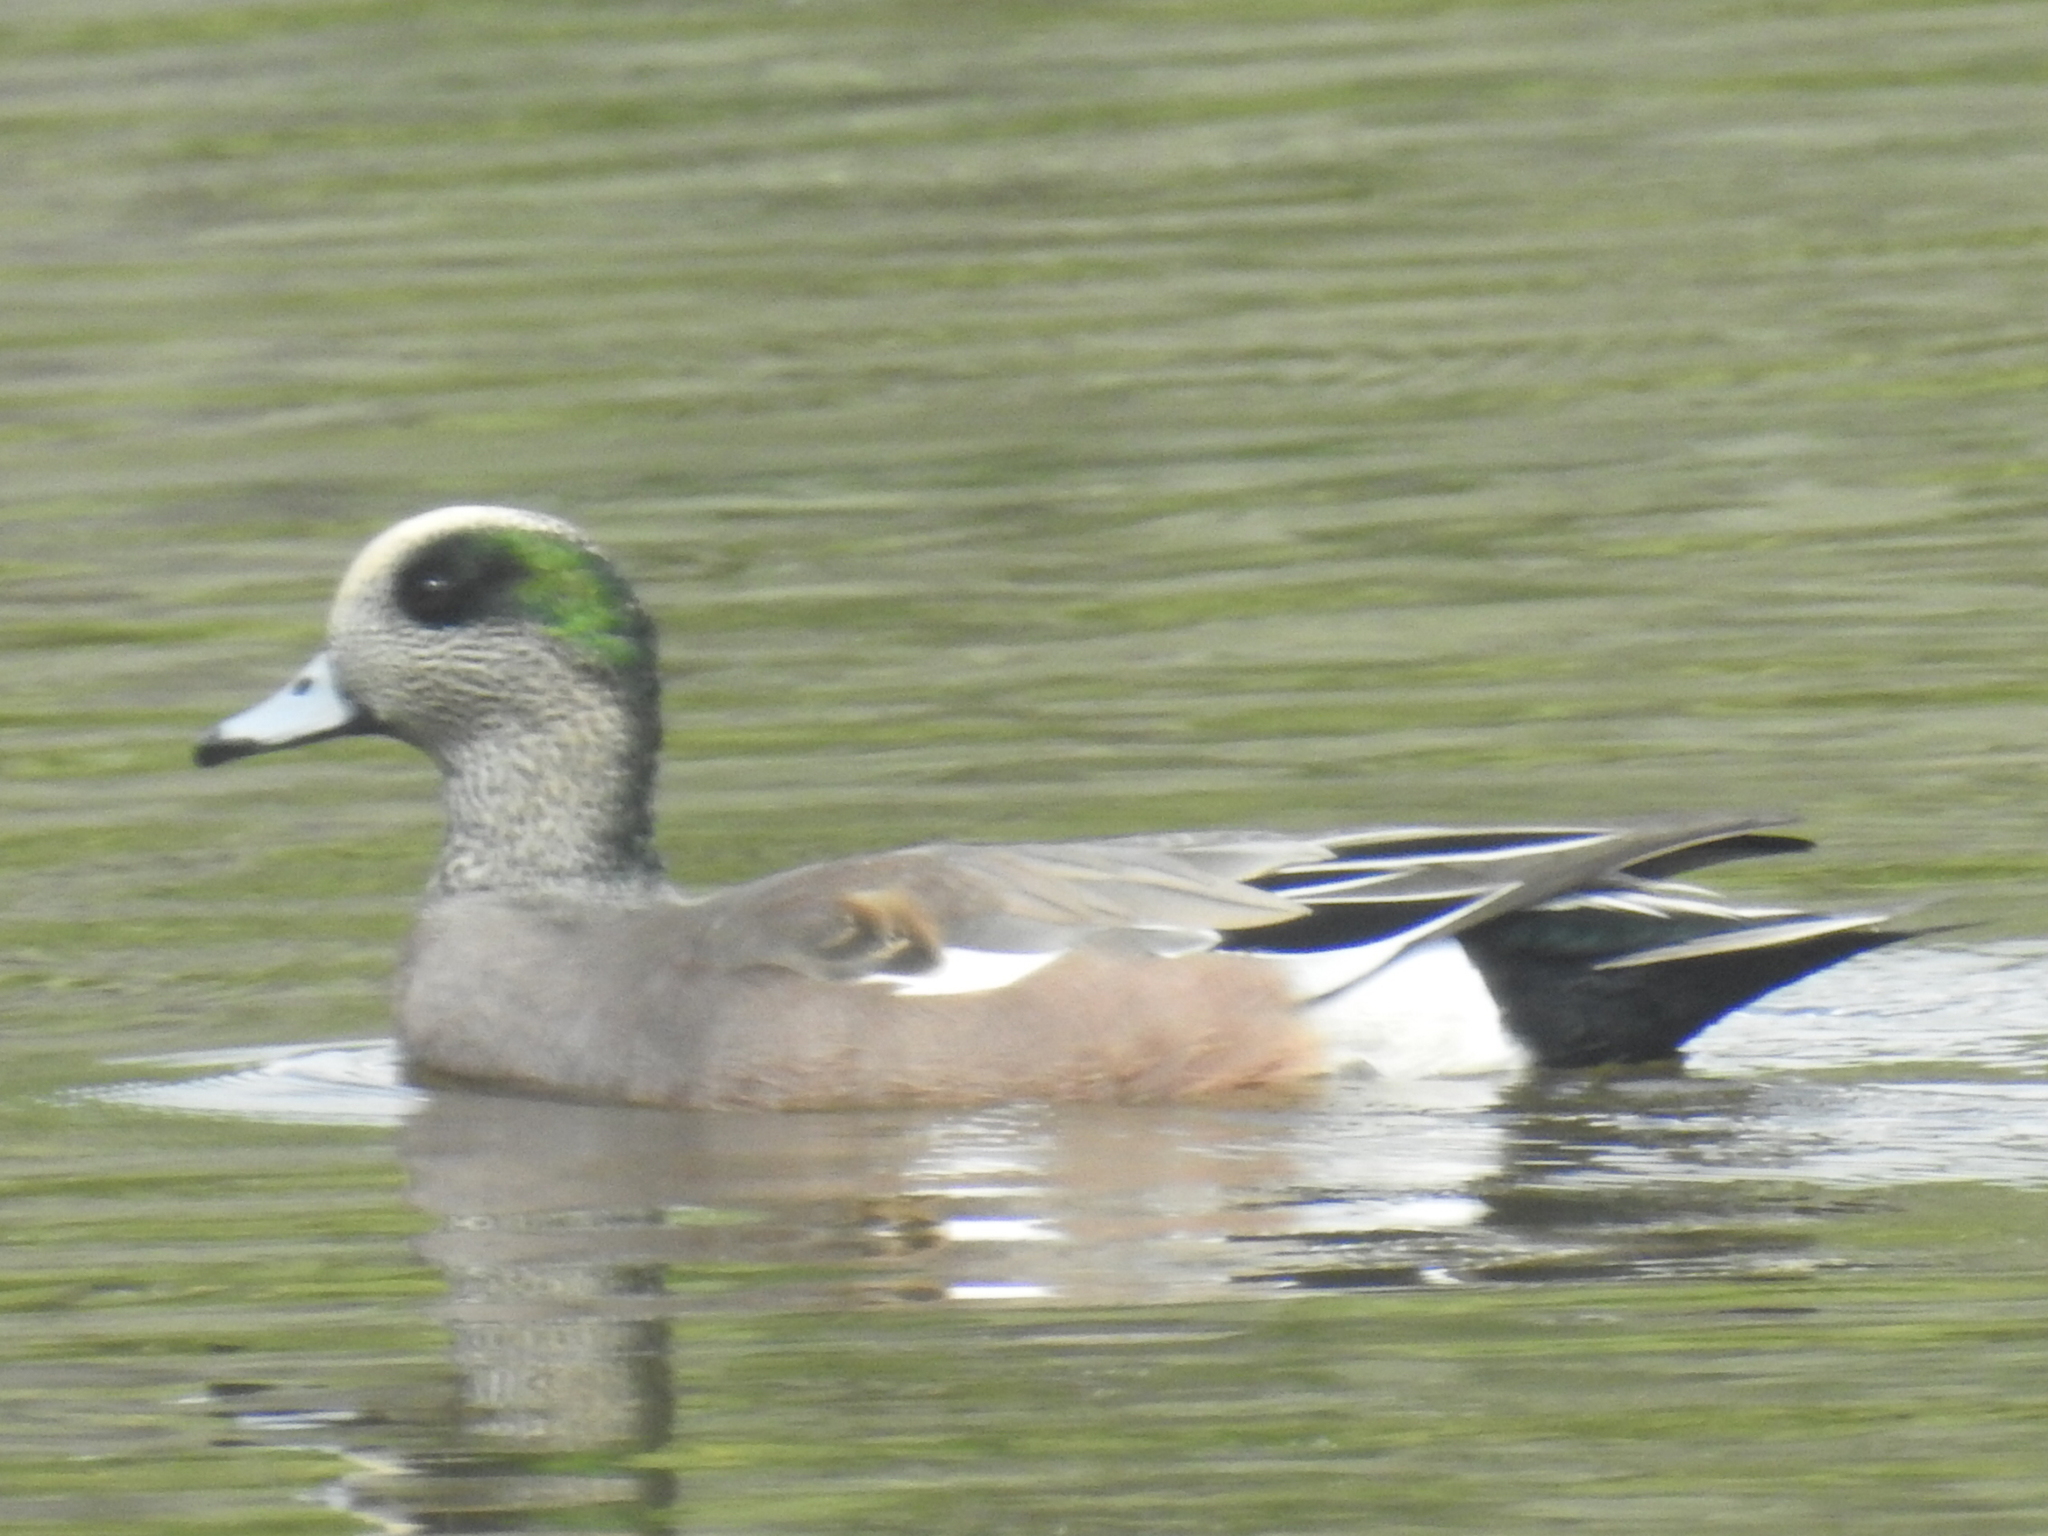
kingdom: Animalia
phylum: Chordata
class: Aves
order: Anseriformes
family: Anatidae
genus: Mareca
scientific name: Mareca americana
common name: American wigeon
